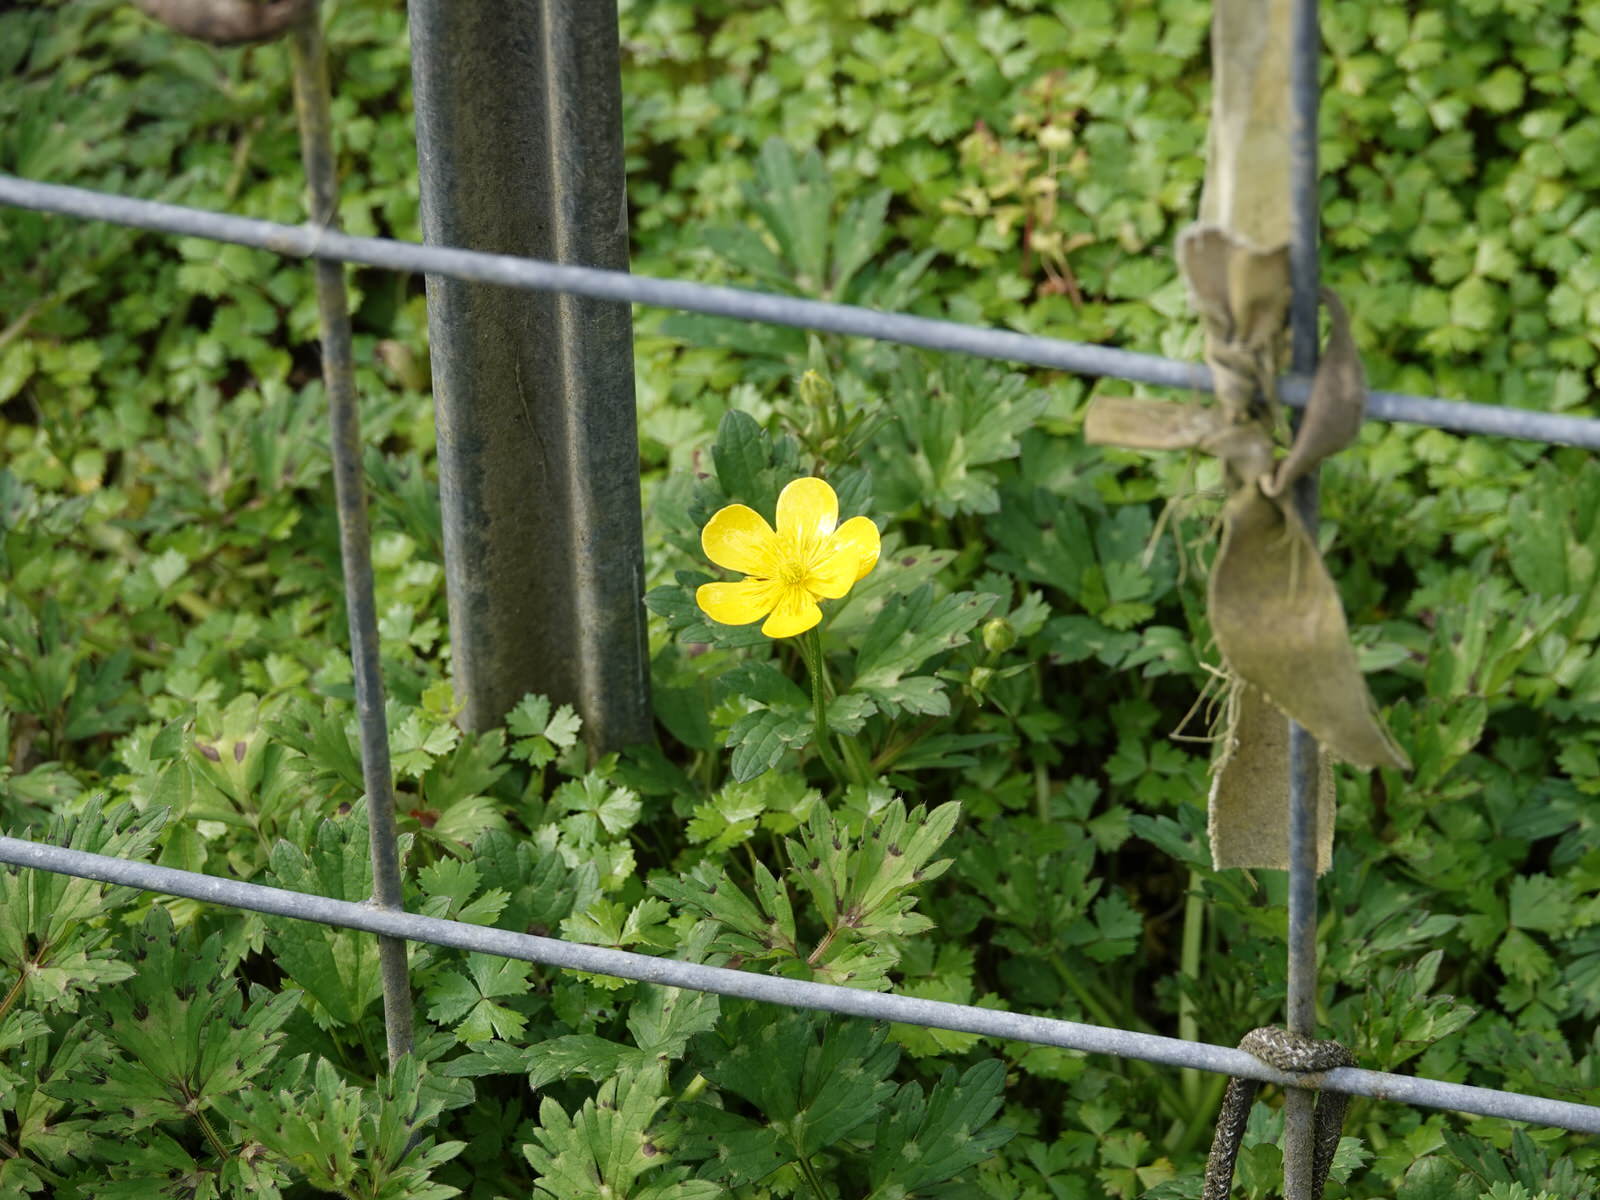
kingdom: Plantae
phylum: Tracheophyta
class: Magnoliopsida
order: Ranunculales
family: Ranunculaceae
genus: Ranunculus
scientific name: Ranunculus repens
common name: Creeping buttercup
